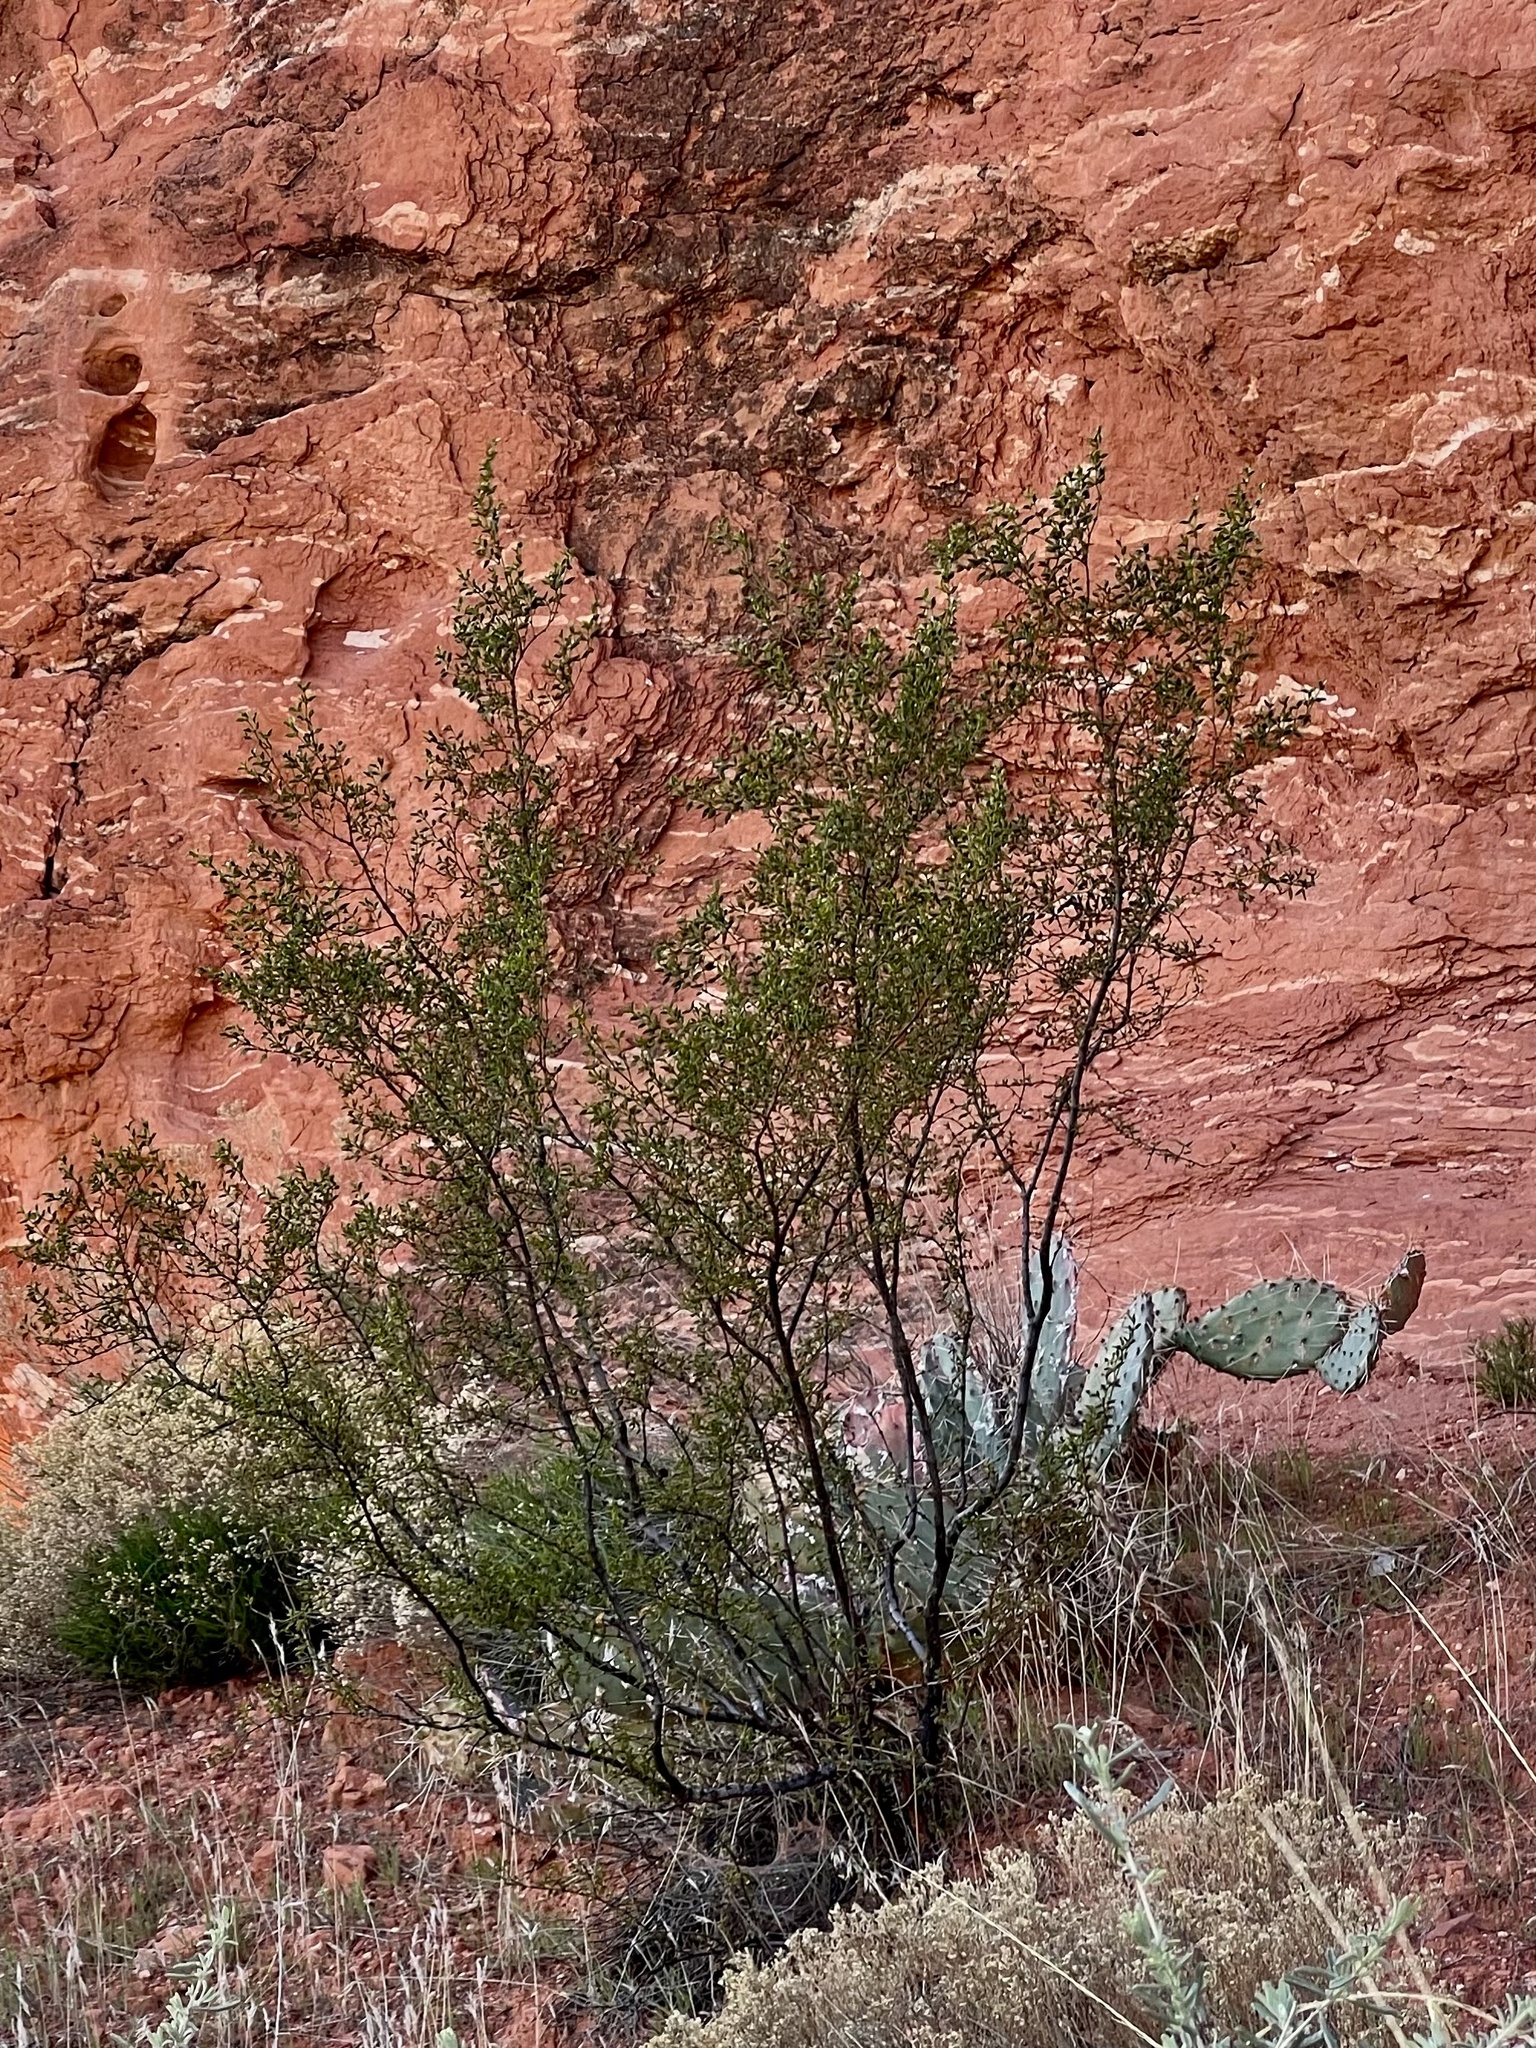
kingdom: Plantae
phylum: Tracheophyta
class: Magnoliopsida
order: Zygophyllales
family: Zygophyllaceae
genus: Larrea
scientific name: Larrea tridentata
